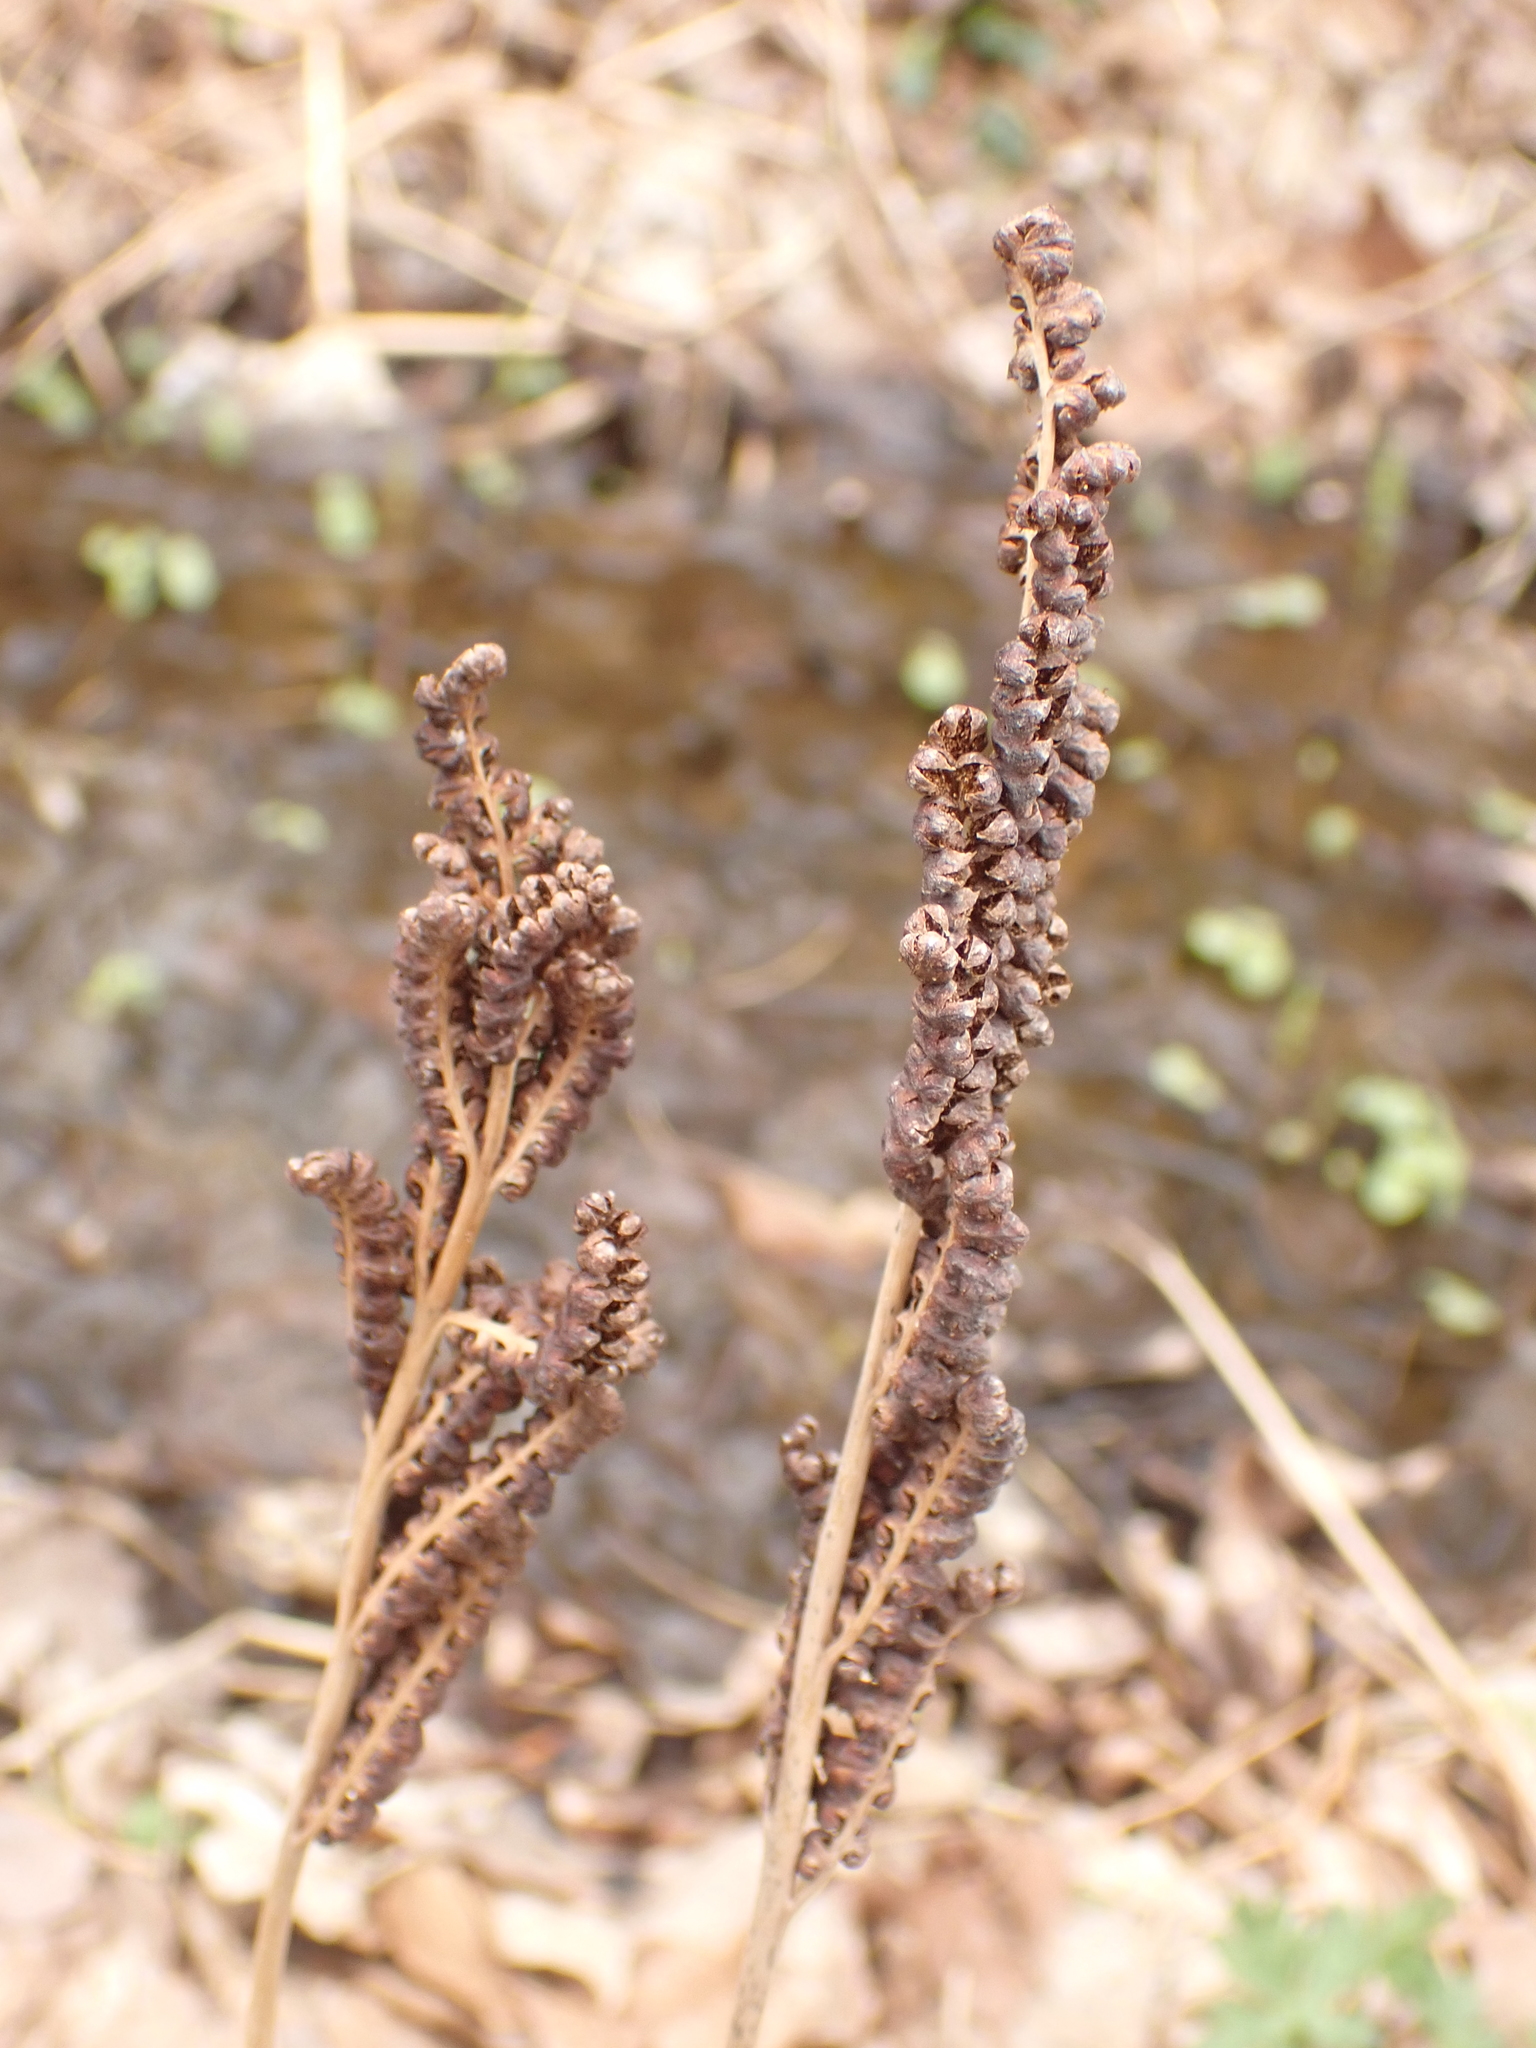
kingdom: Plantae
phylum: Tracheophyta
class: Polypodiopsida
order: Polypodiales
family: Onocleaceae
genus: Onoclea
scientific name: Onoclea sensibilis
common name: Sensitive fern
